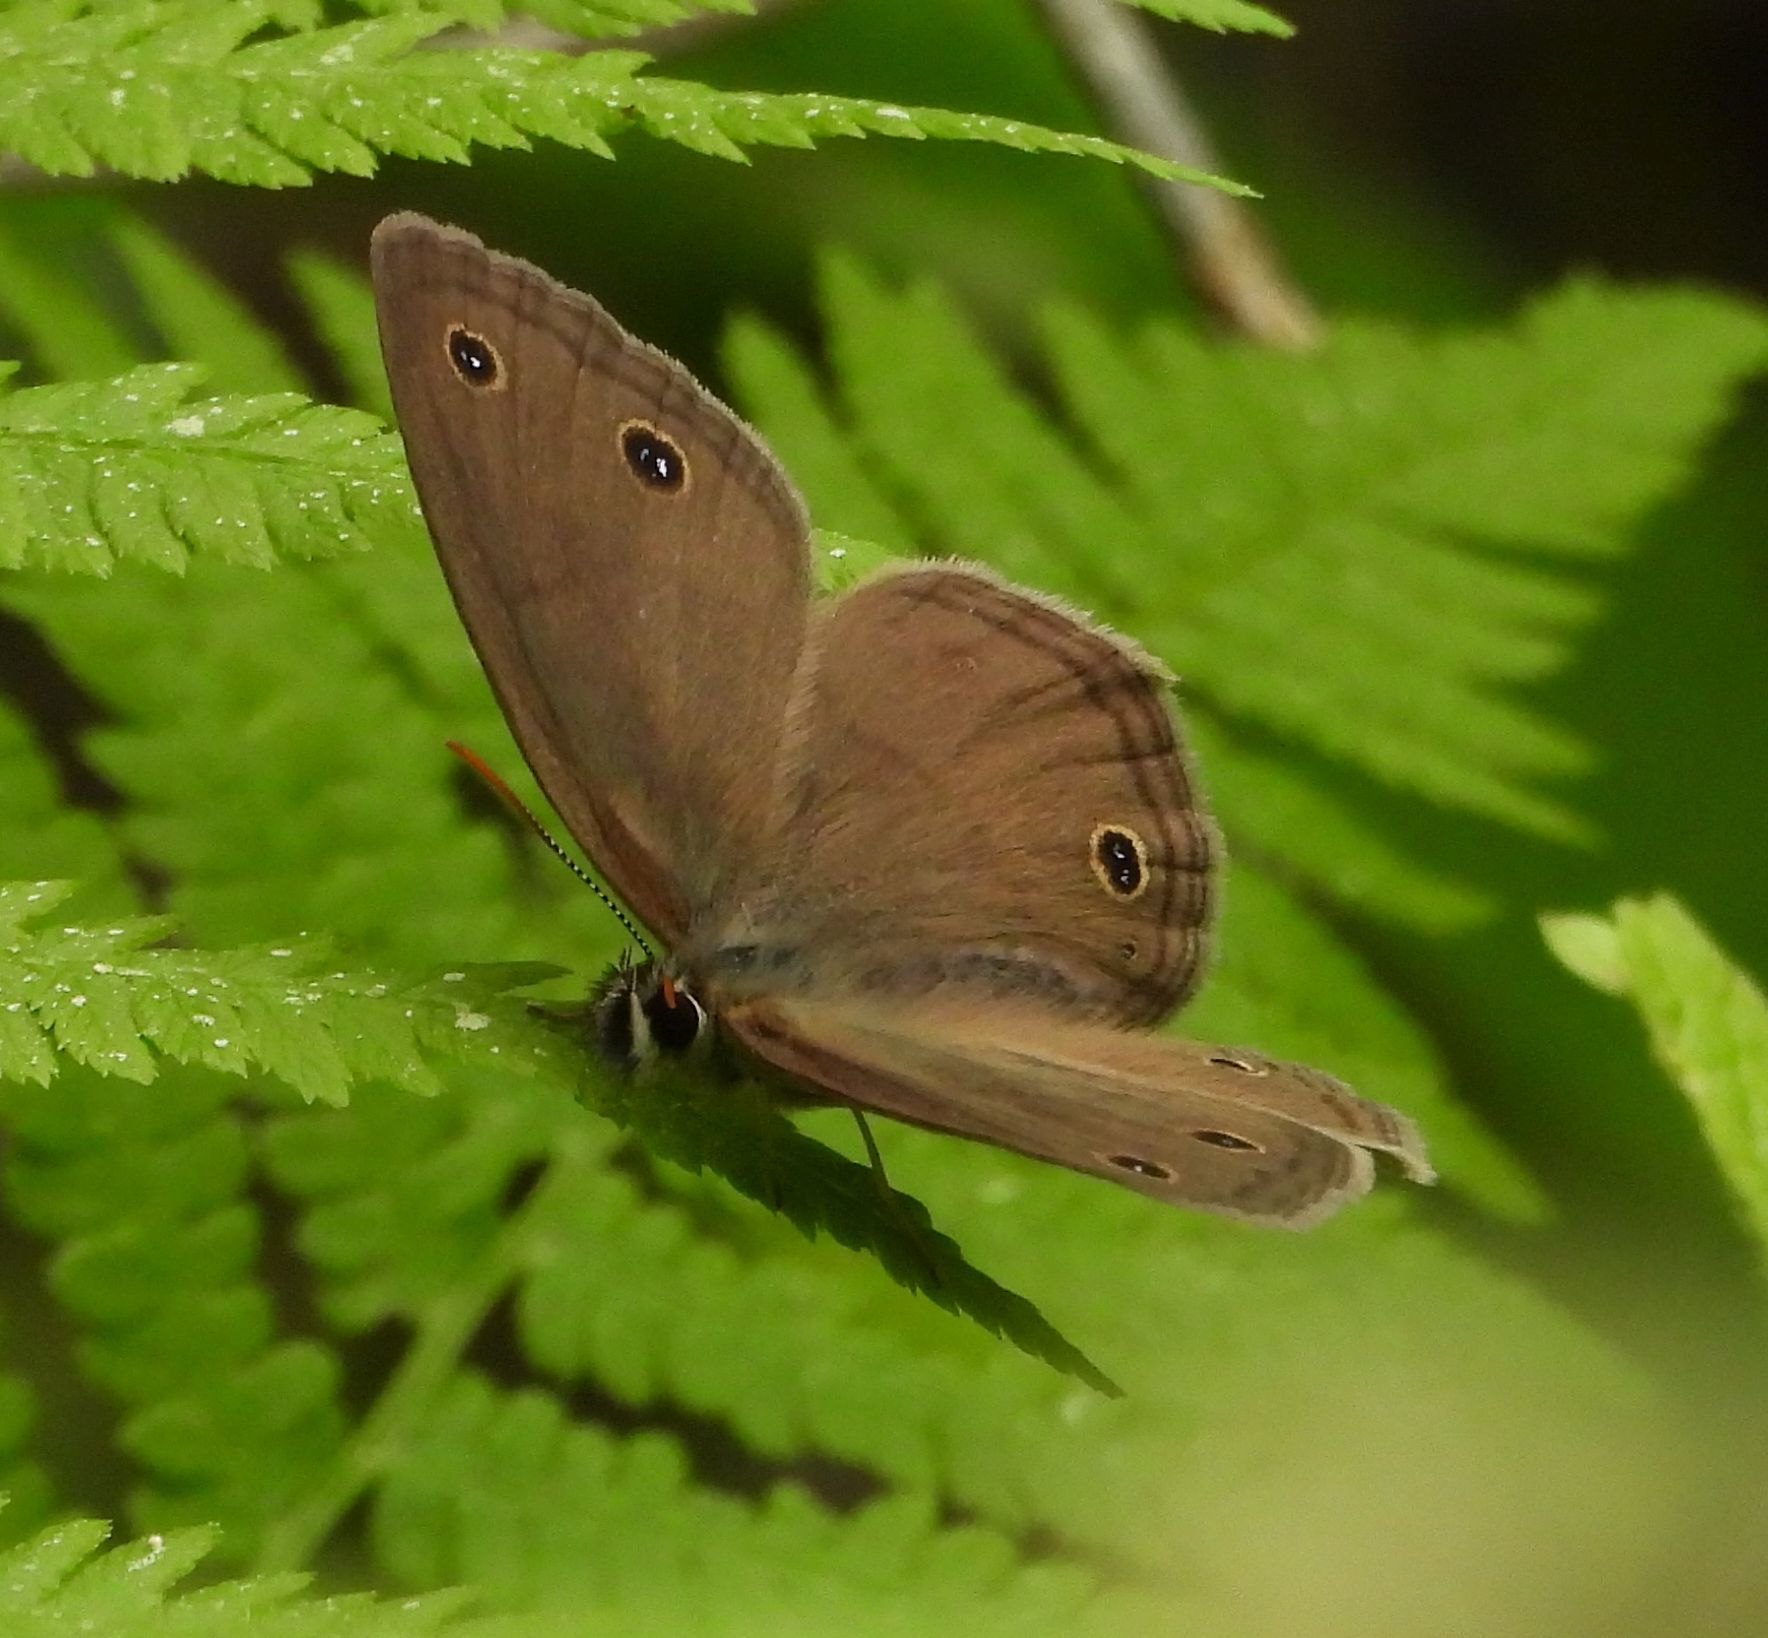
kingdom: Animalia
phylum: Arthropoda
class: Insecta
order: Lepidoptera
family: Nymphalidae
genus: Euptychia
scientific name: Euptychia cymela
